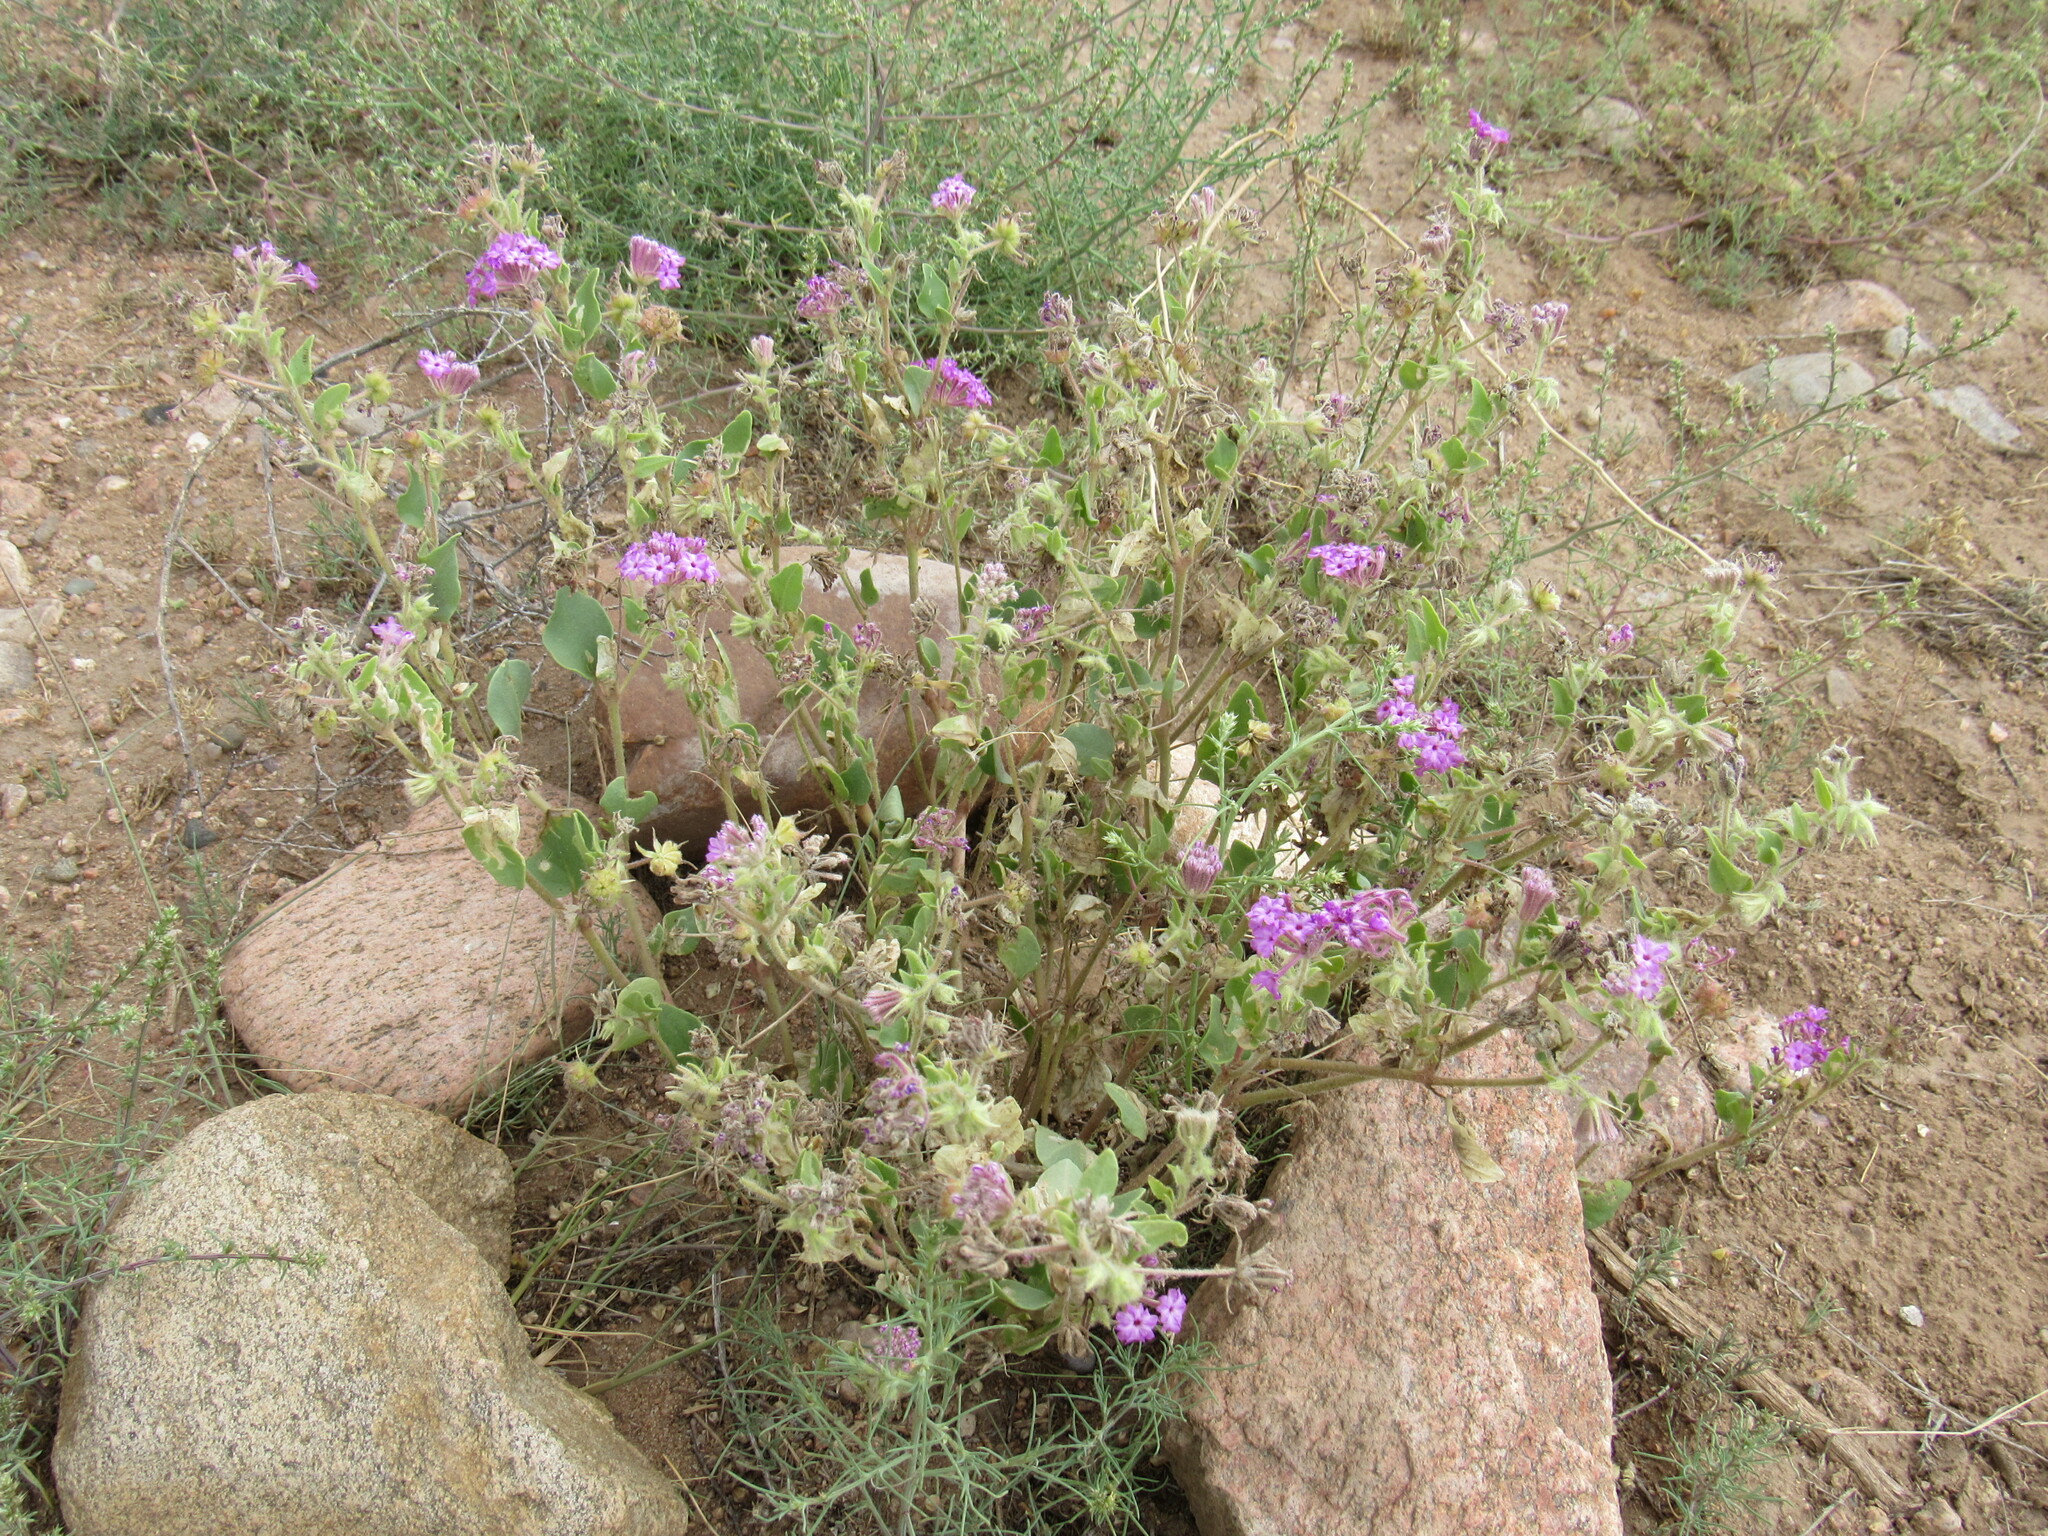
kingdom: Plantae
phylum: Tracheophyta
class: Magnoliopsida
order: Caryophyllales
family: Nyctaginaceae
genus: Abronia
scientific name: Abronia angustifolia
